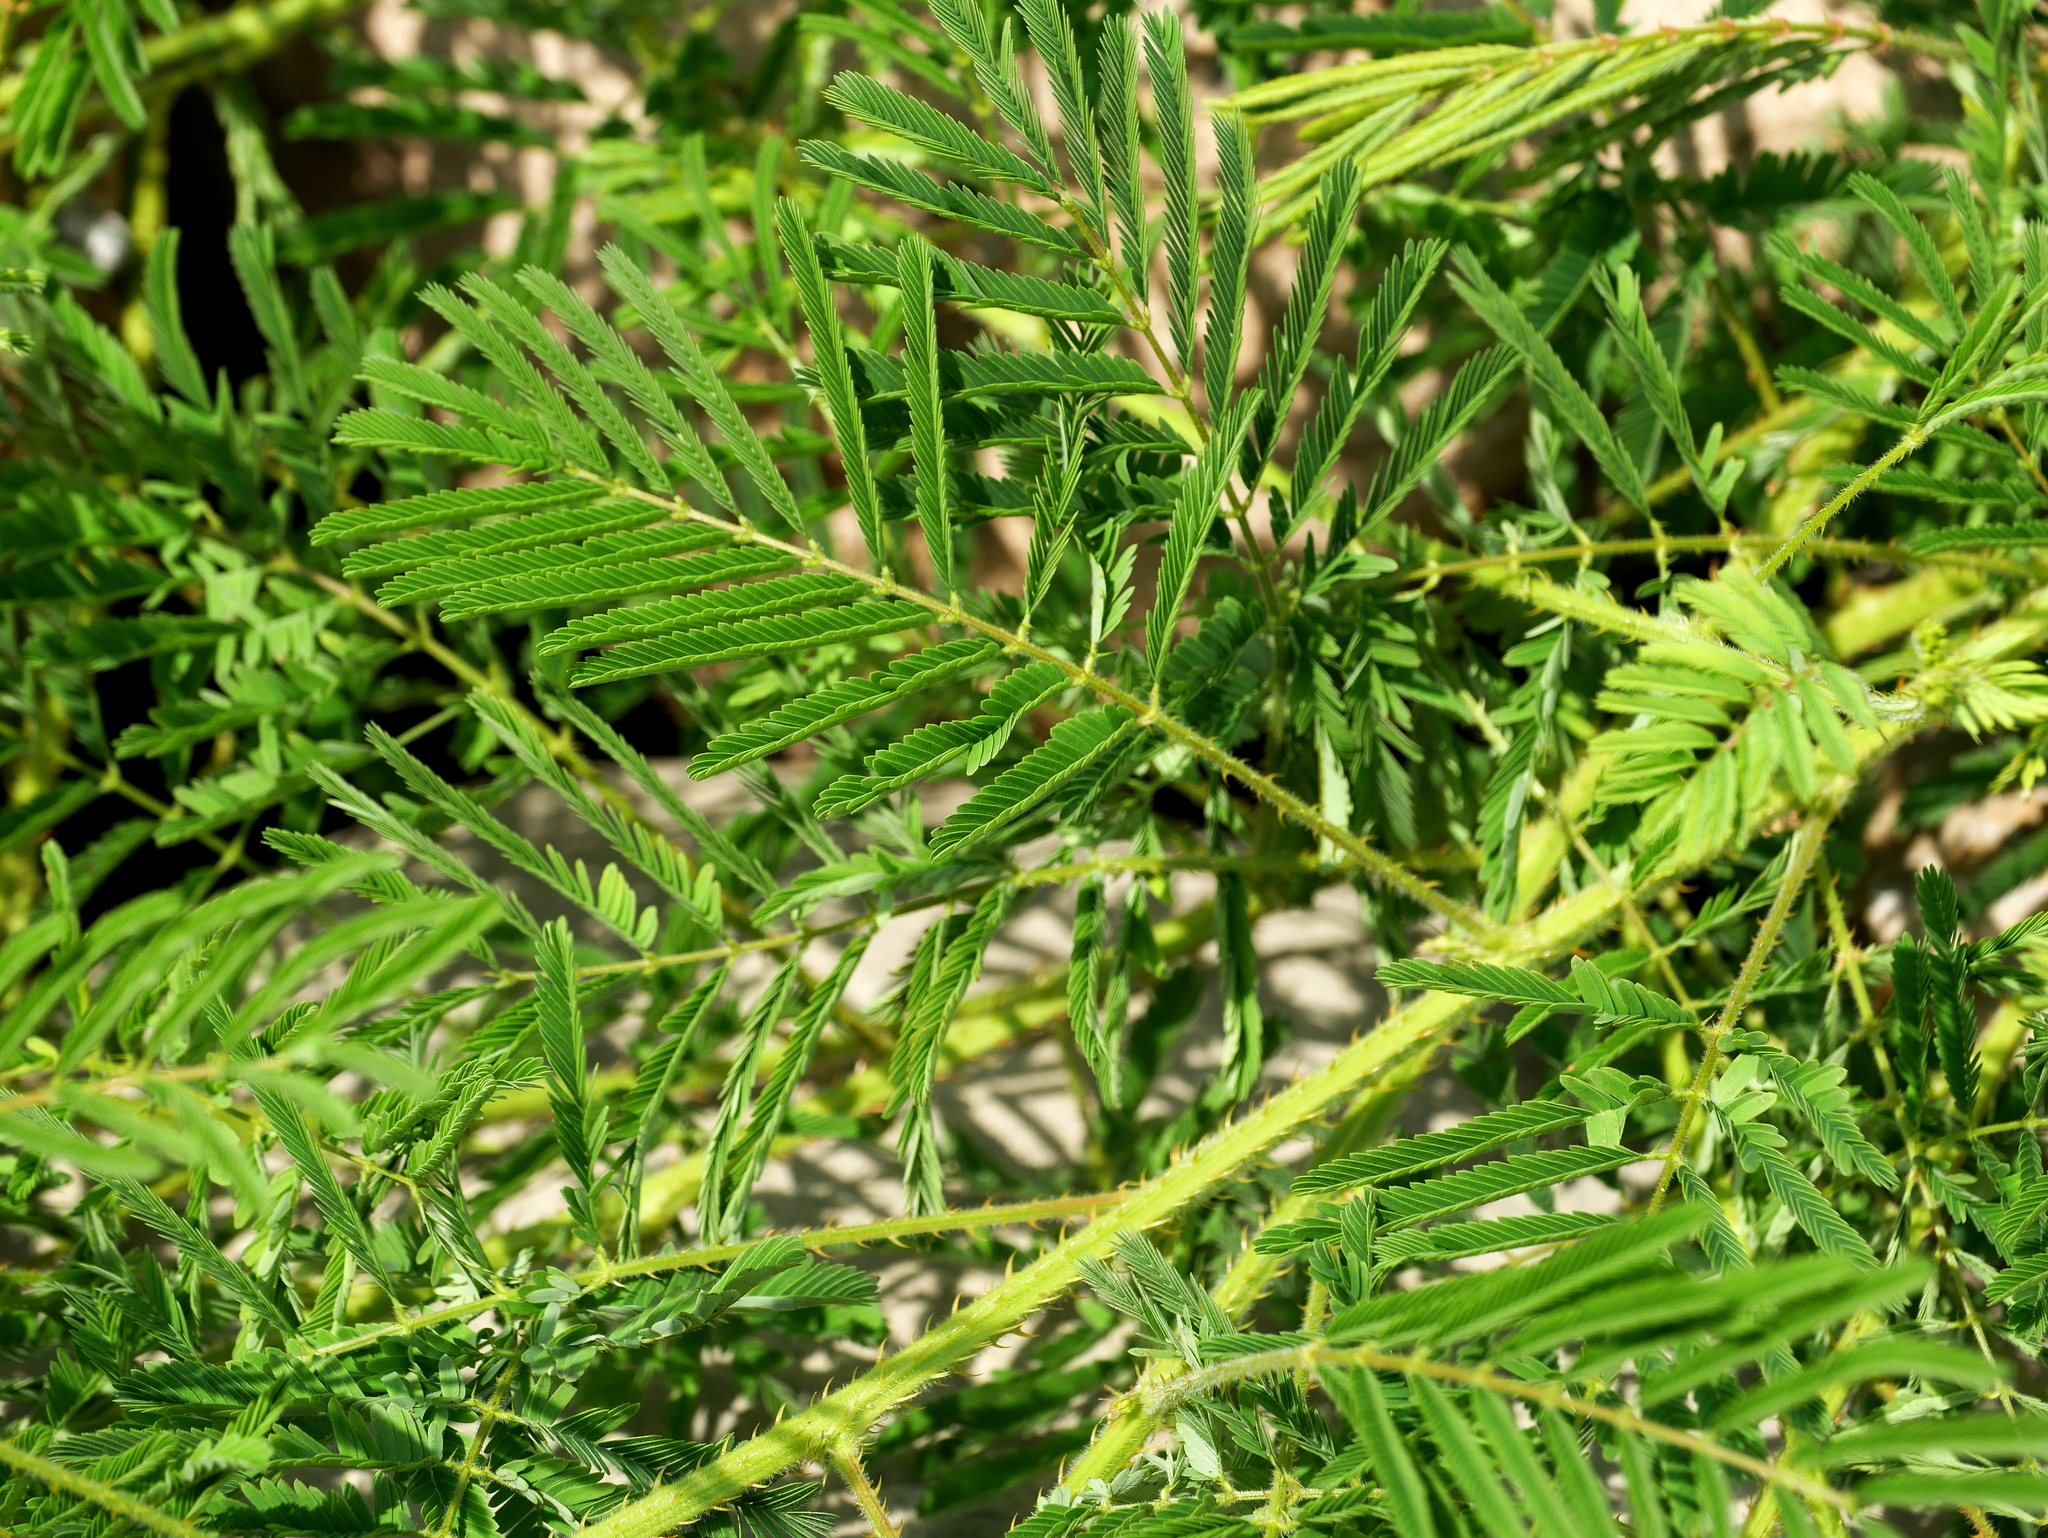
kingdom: Plantae
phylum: Tracheophyta
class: Magnoliopsida
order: Fabales
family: Fabaceae
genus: Mimosa
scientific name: Mimosa diplotricha
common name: Giant sensitive-plant
